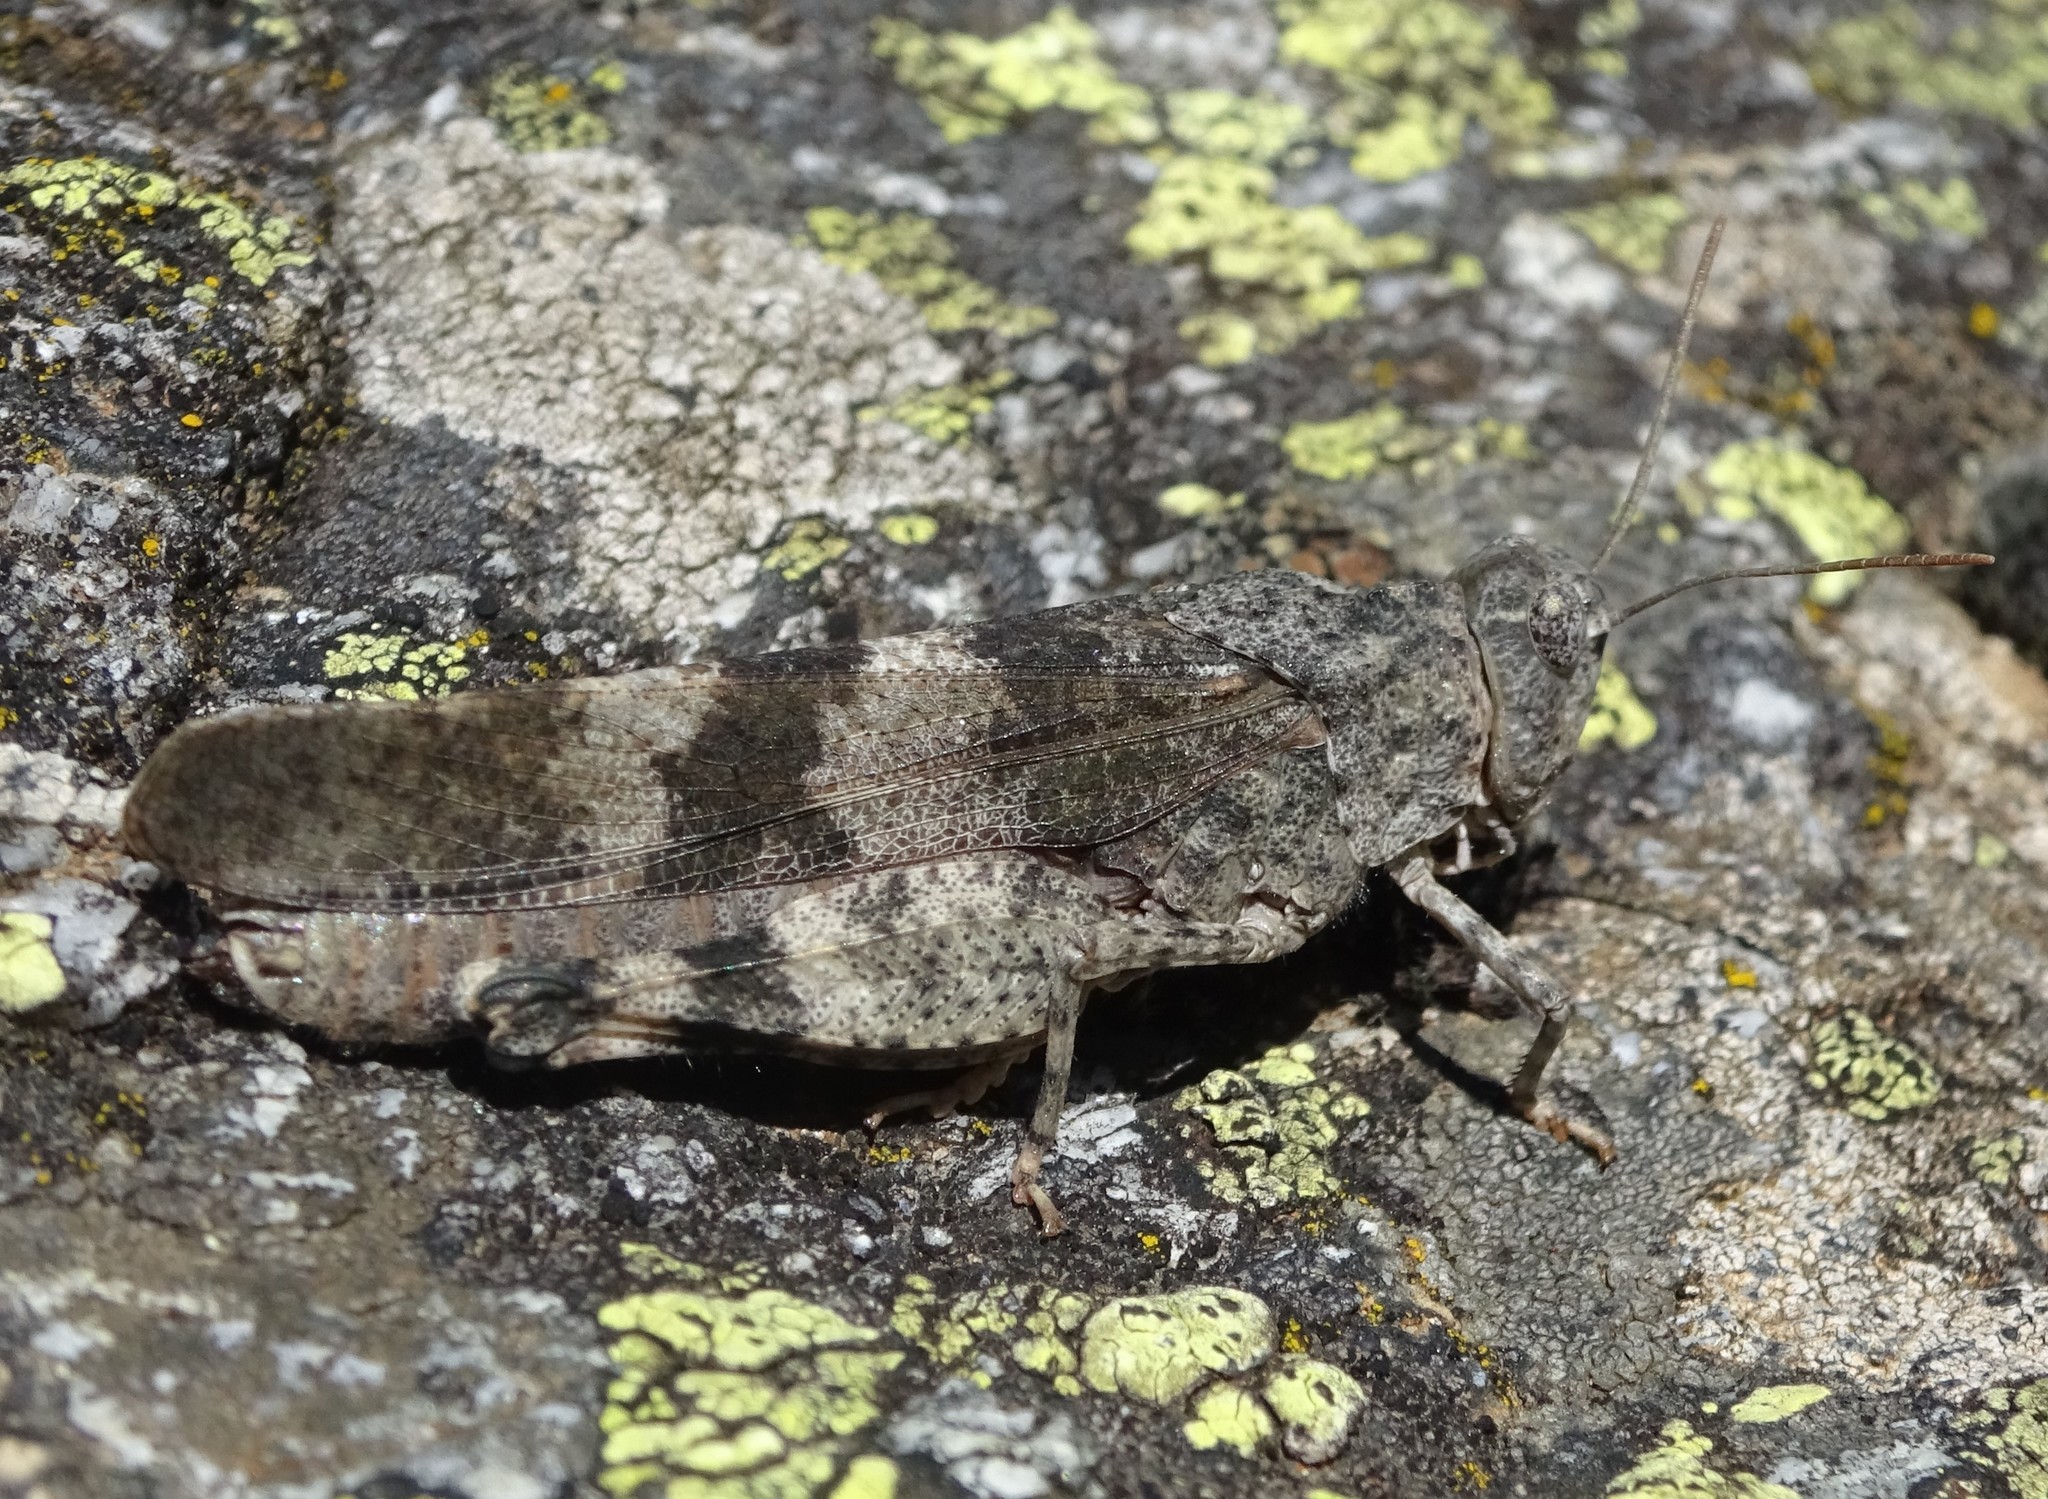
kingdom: Animalia
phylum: Arthropoda
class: Insecta
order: Orthoptera
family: Acrididae
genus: Oedipoda
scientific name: Oedipoda germanica
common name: Red band-winged grasshopper
